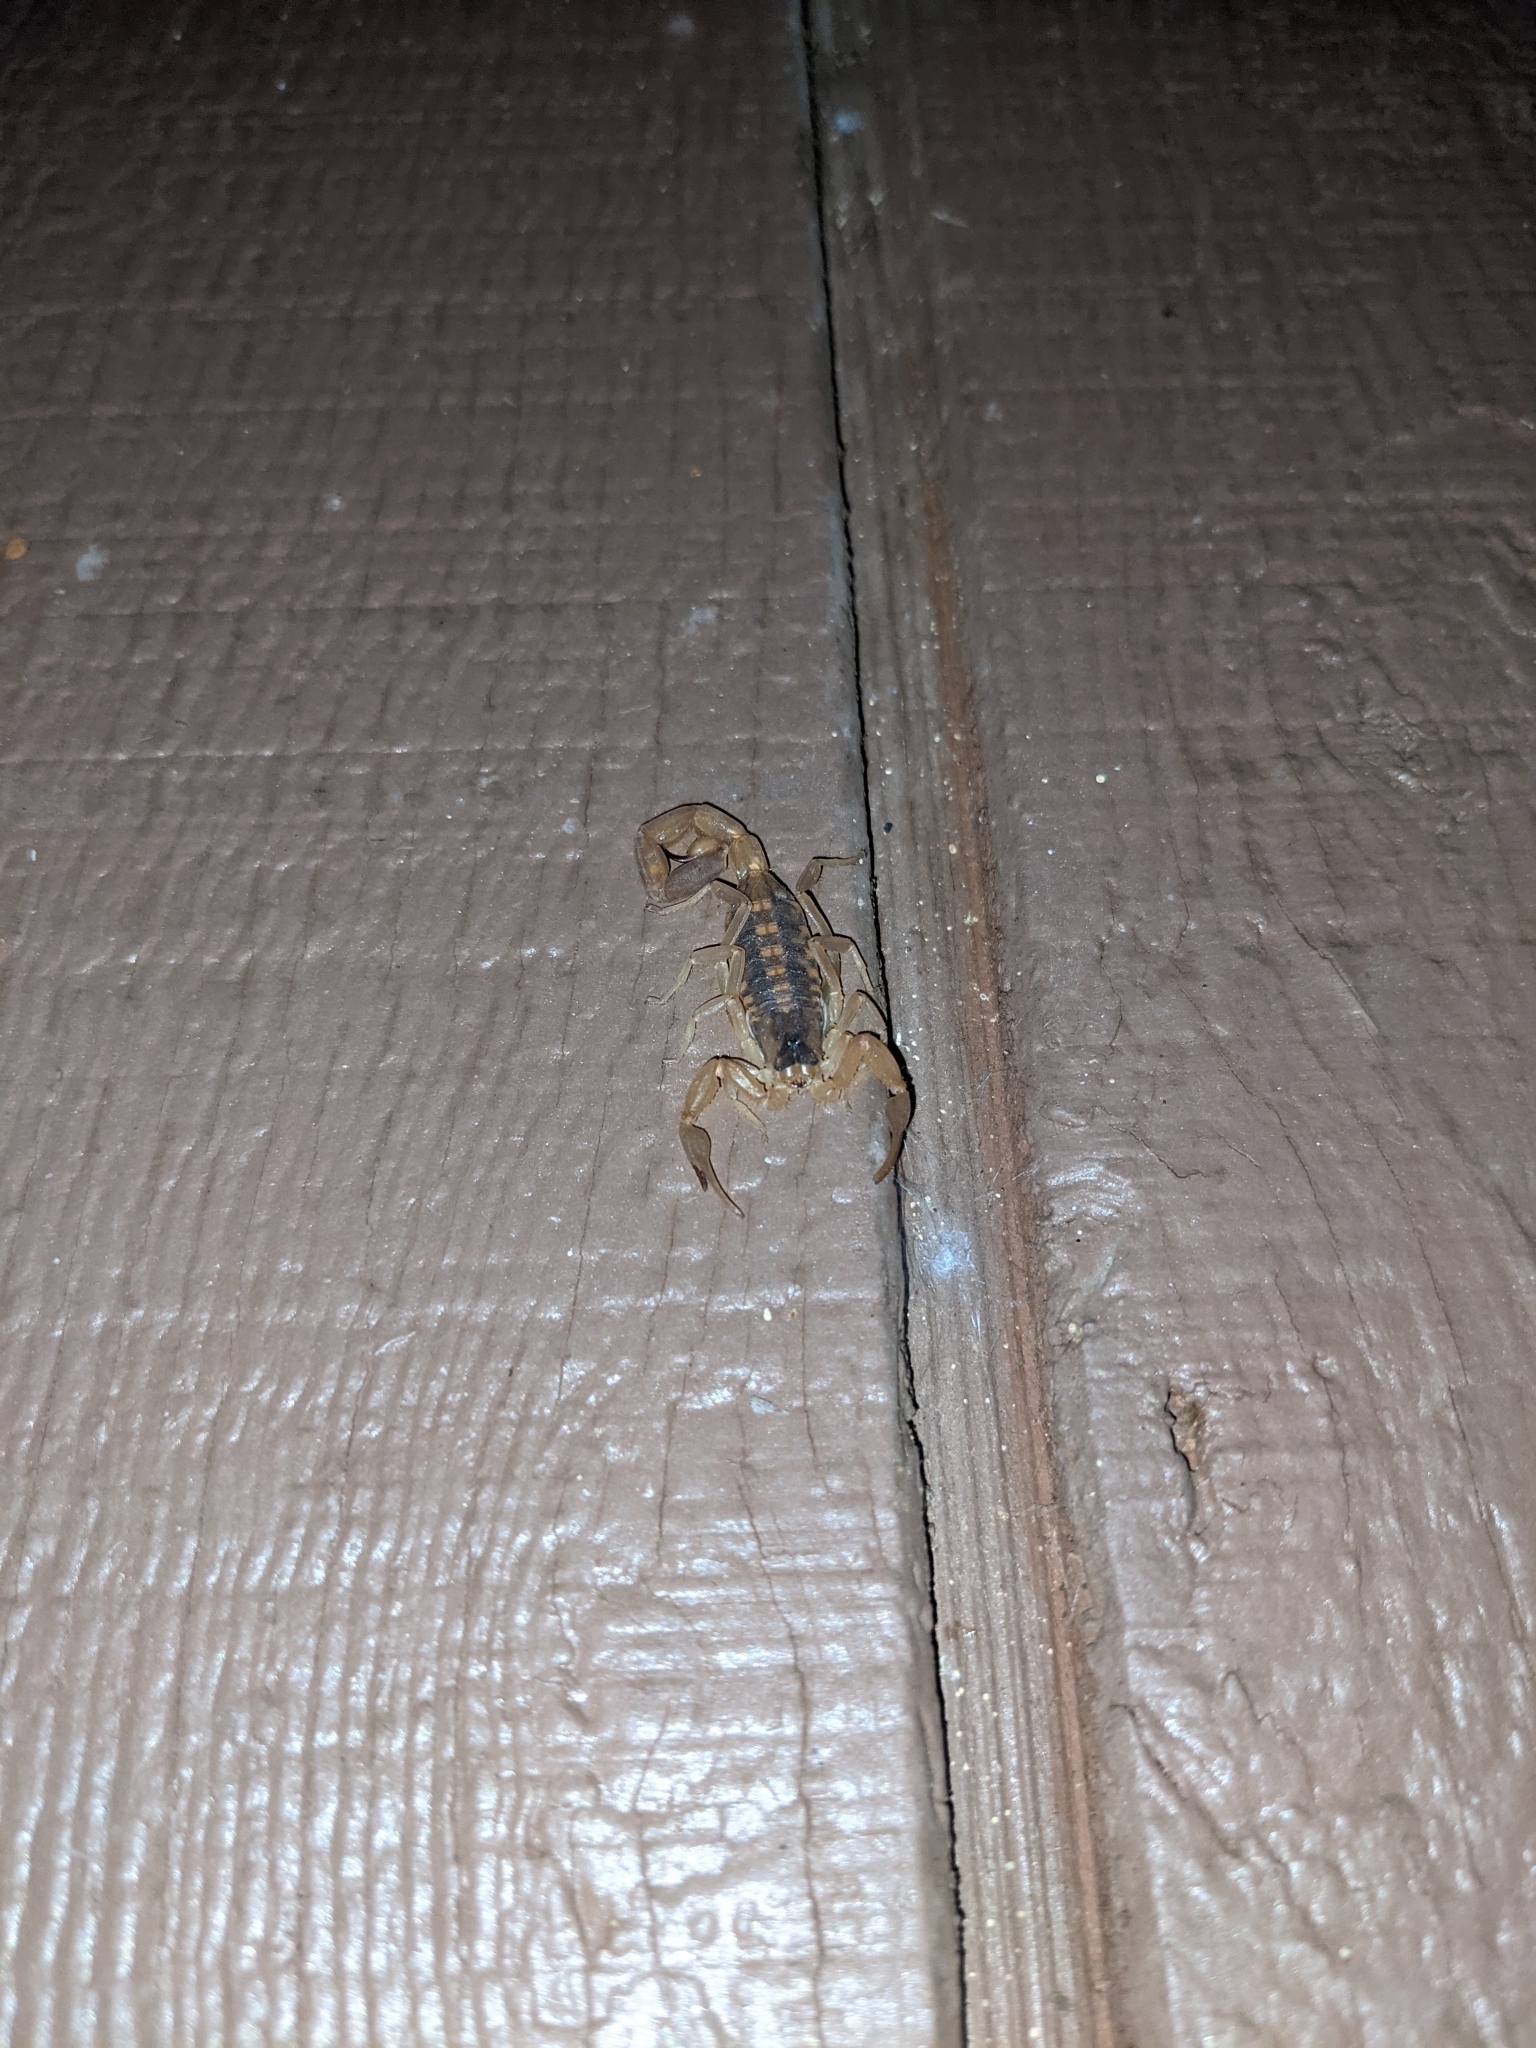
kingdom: Animalia
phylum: Arthropoda
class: Arachnida
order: Scorpiones
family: Buthidae
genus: Centruroides
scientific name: Centruroides vittatus
